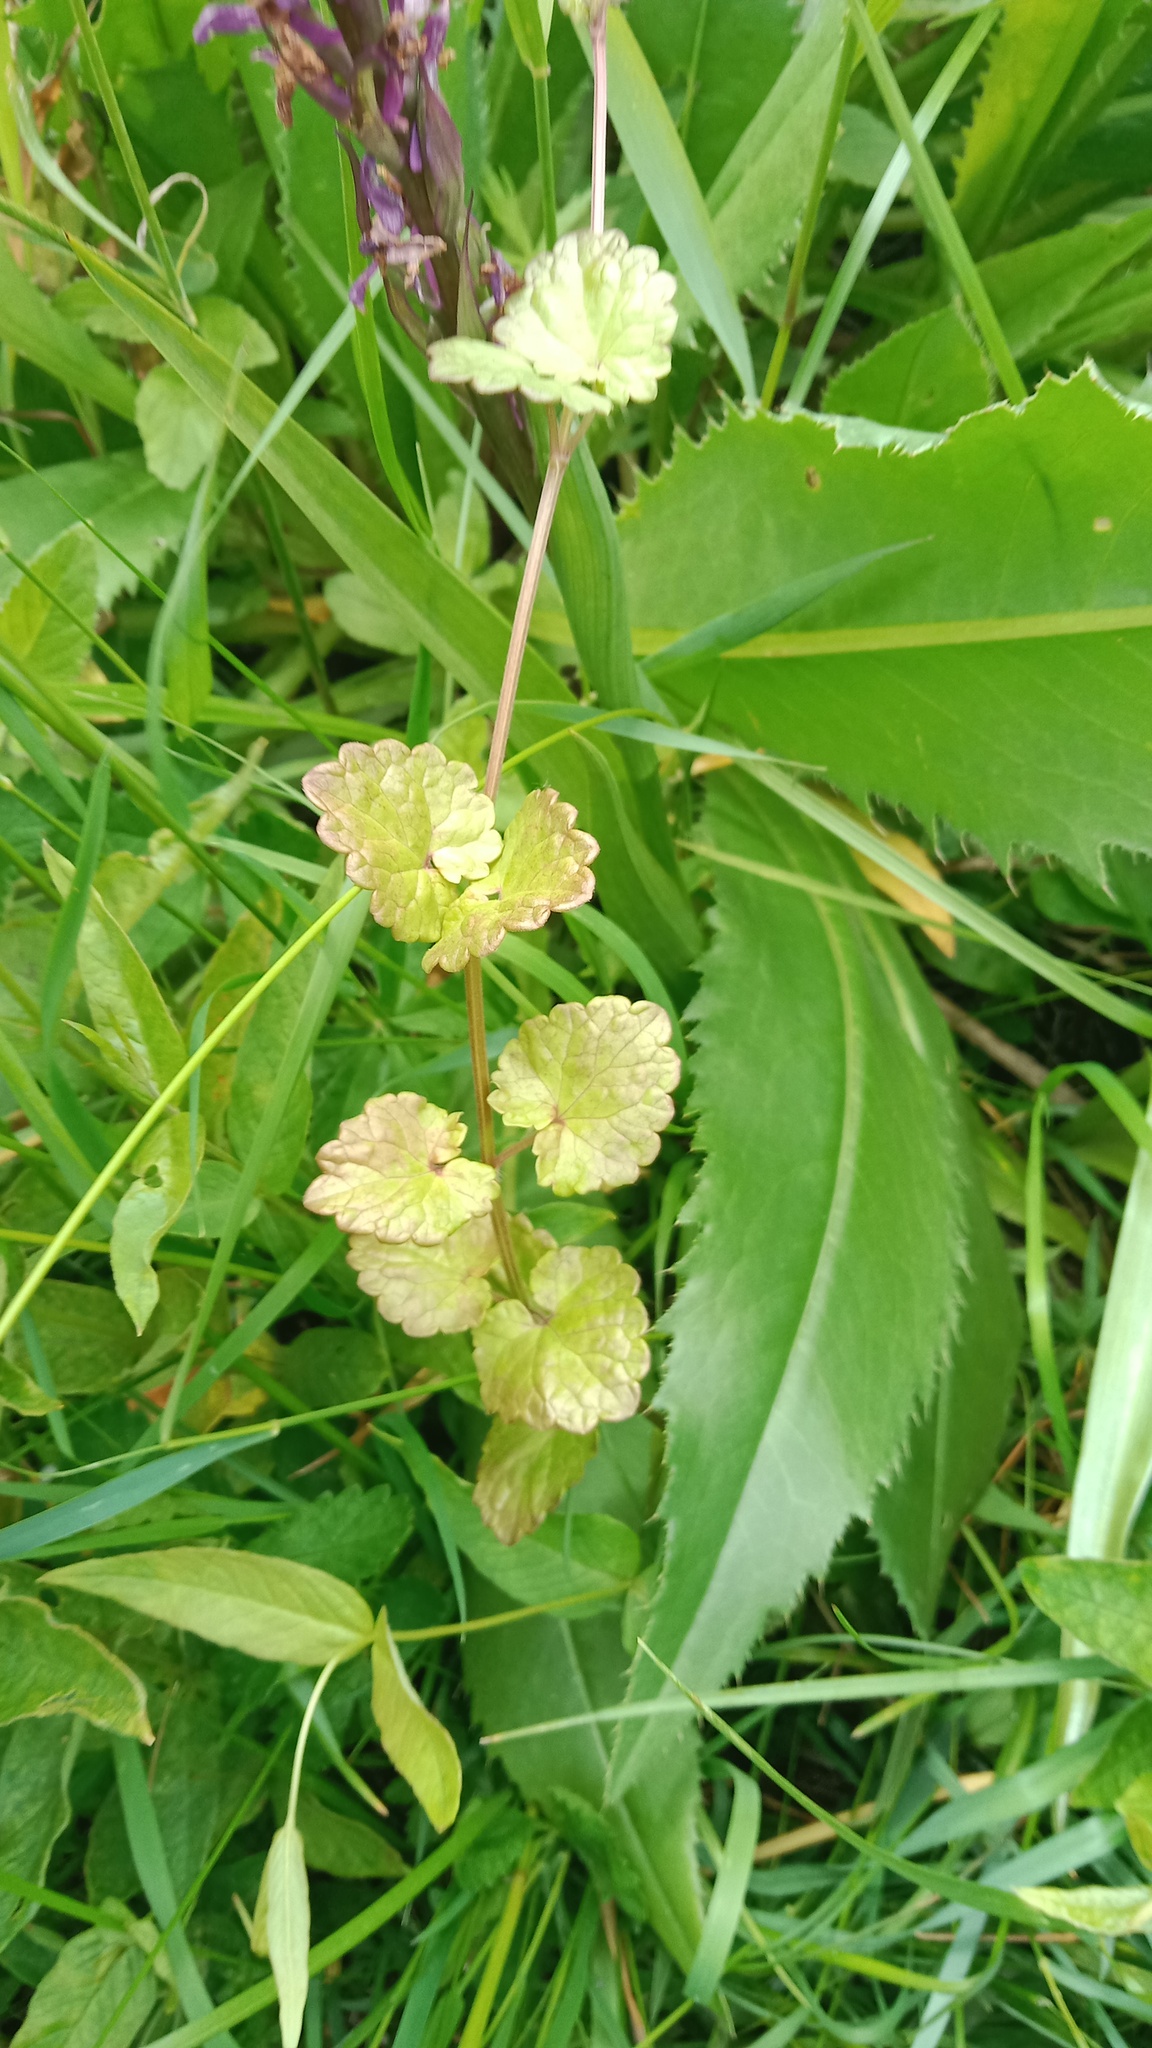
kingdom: Plantae
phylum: Tracheophyta
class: Magnoliopsida
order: Lamiales
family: Lamiaceae
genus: Glechoma
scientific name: Glechoma hederacea
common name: Ground ivy
